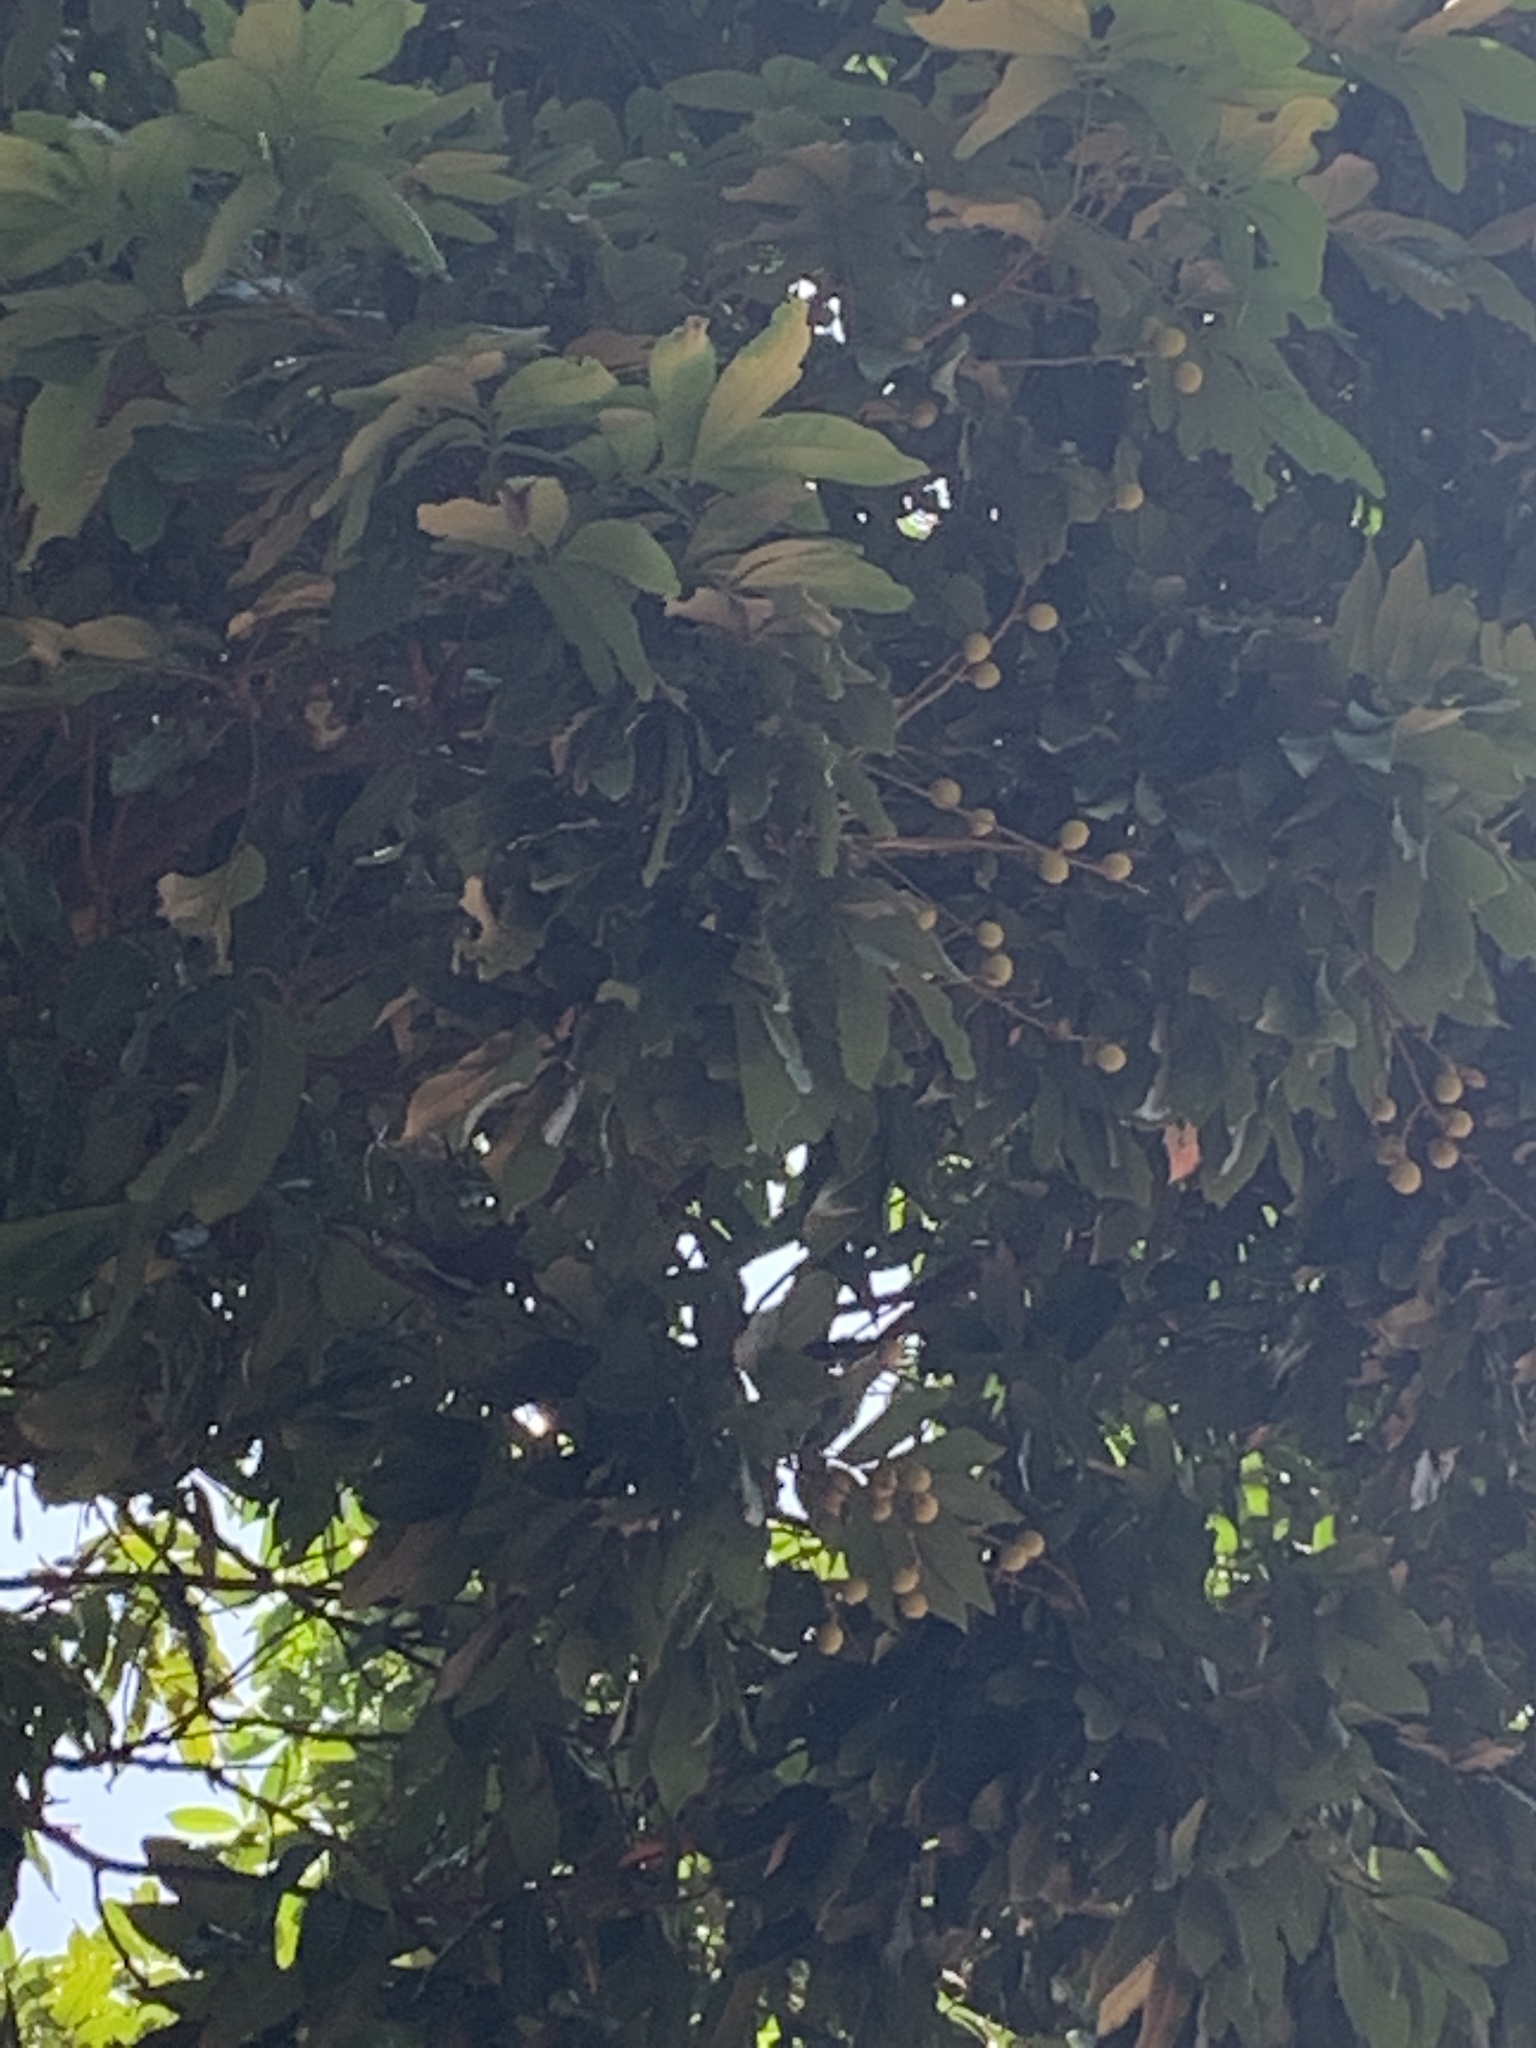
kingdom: Plantae
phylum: Tracheophyta
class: Magnoliopsida
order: Sapindales
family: Sapindaceae
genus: Dimocarpus
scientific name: Dimocarpus longan
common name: Longan
